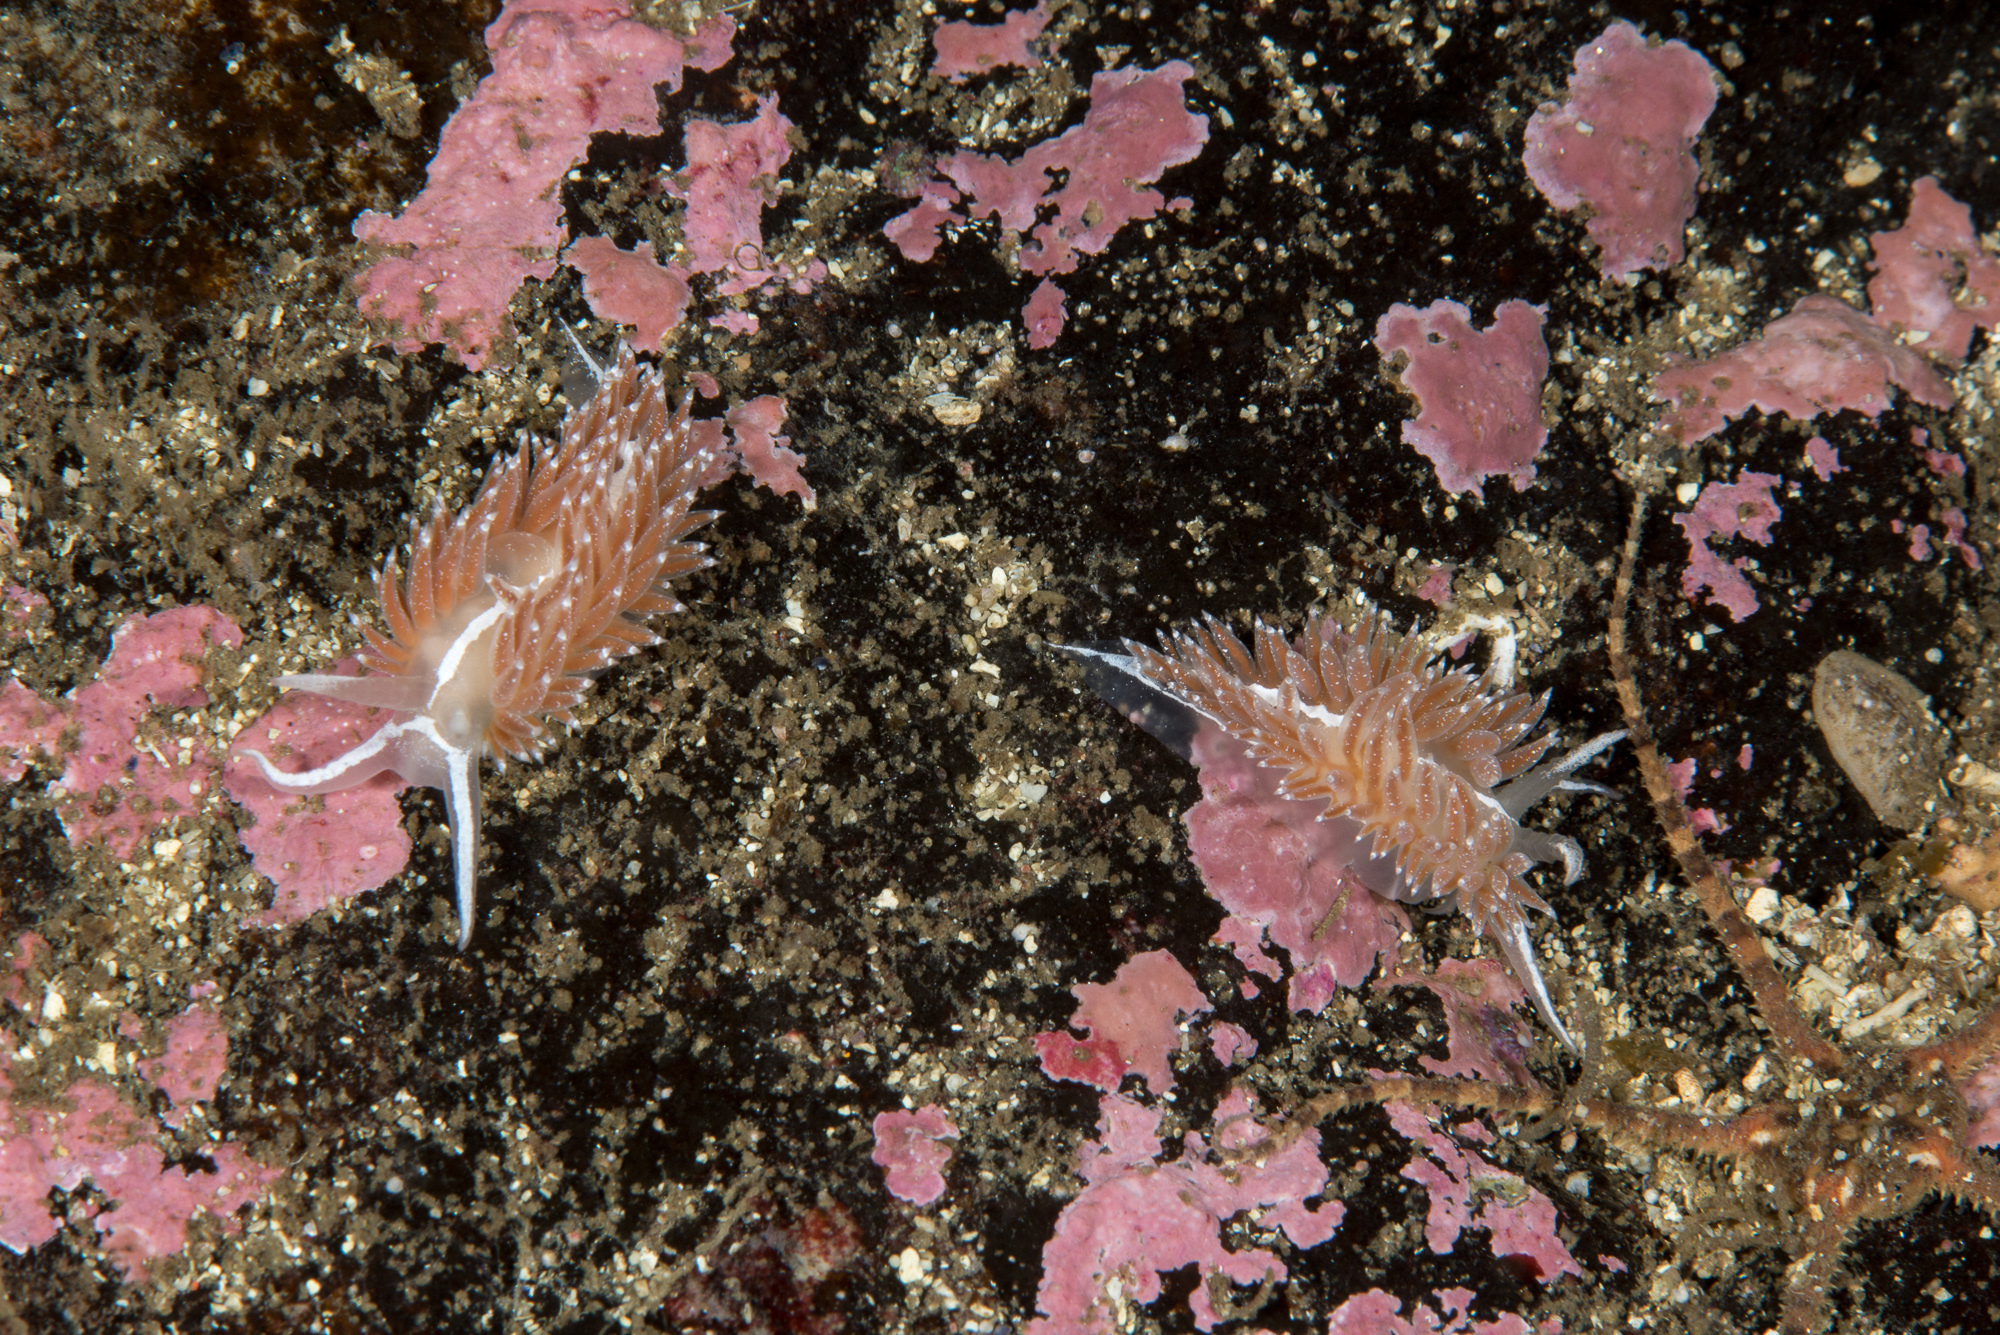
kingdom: Animalia
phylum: Mollusca
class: Gastropoda
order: Nudibranchia
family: Coryphellidae
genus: Coryphella
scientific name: Coryphella orjani
